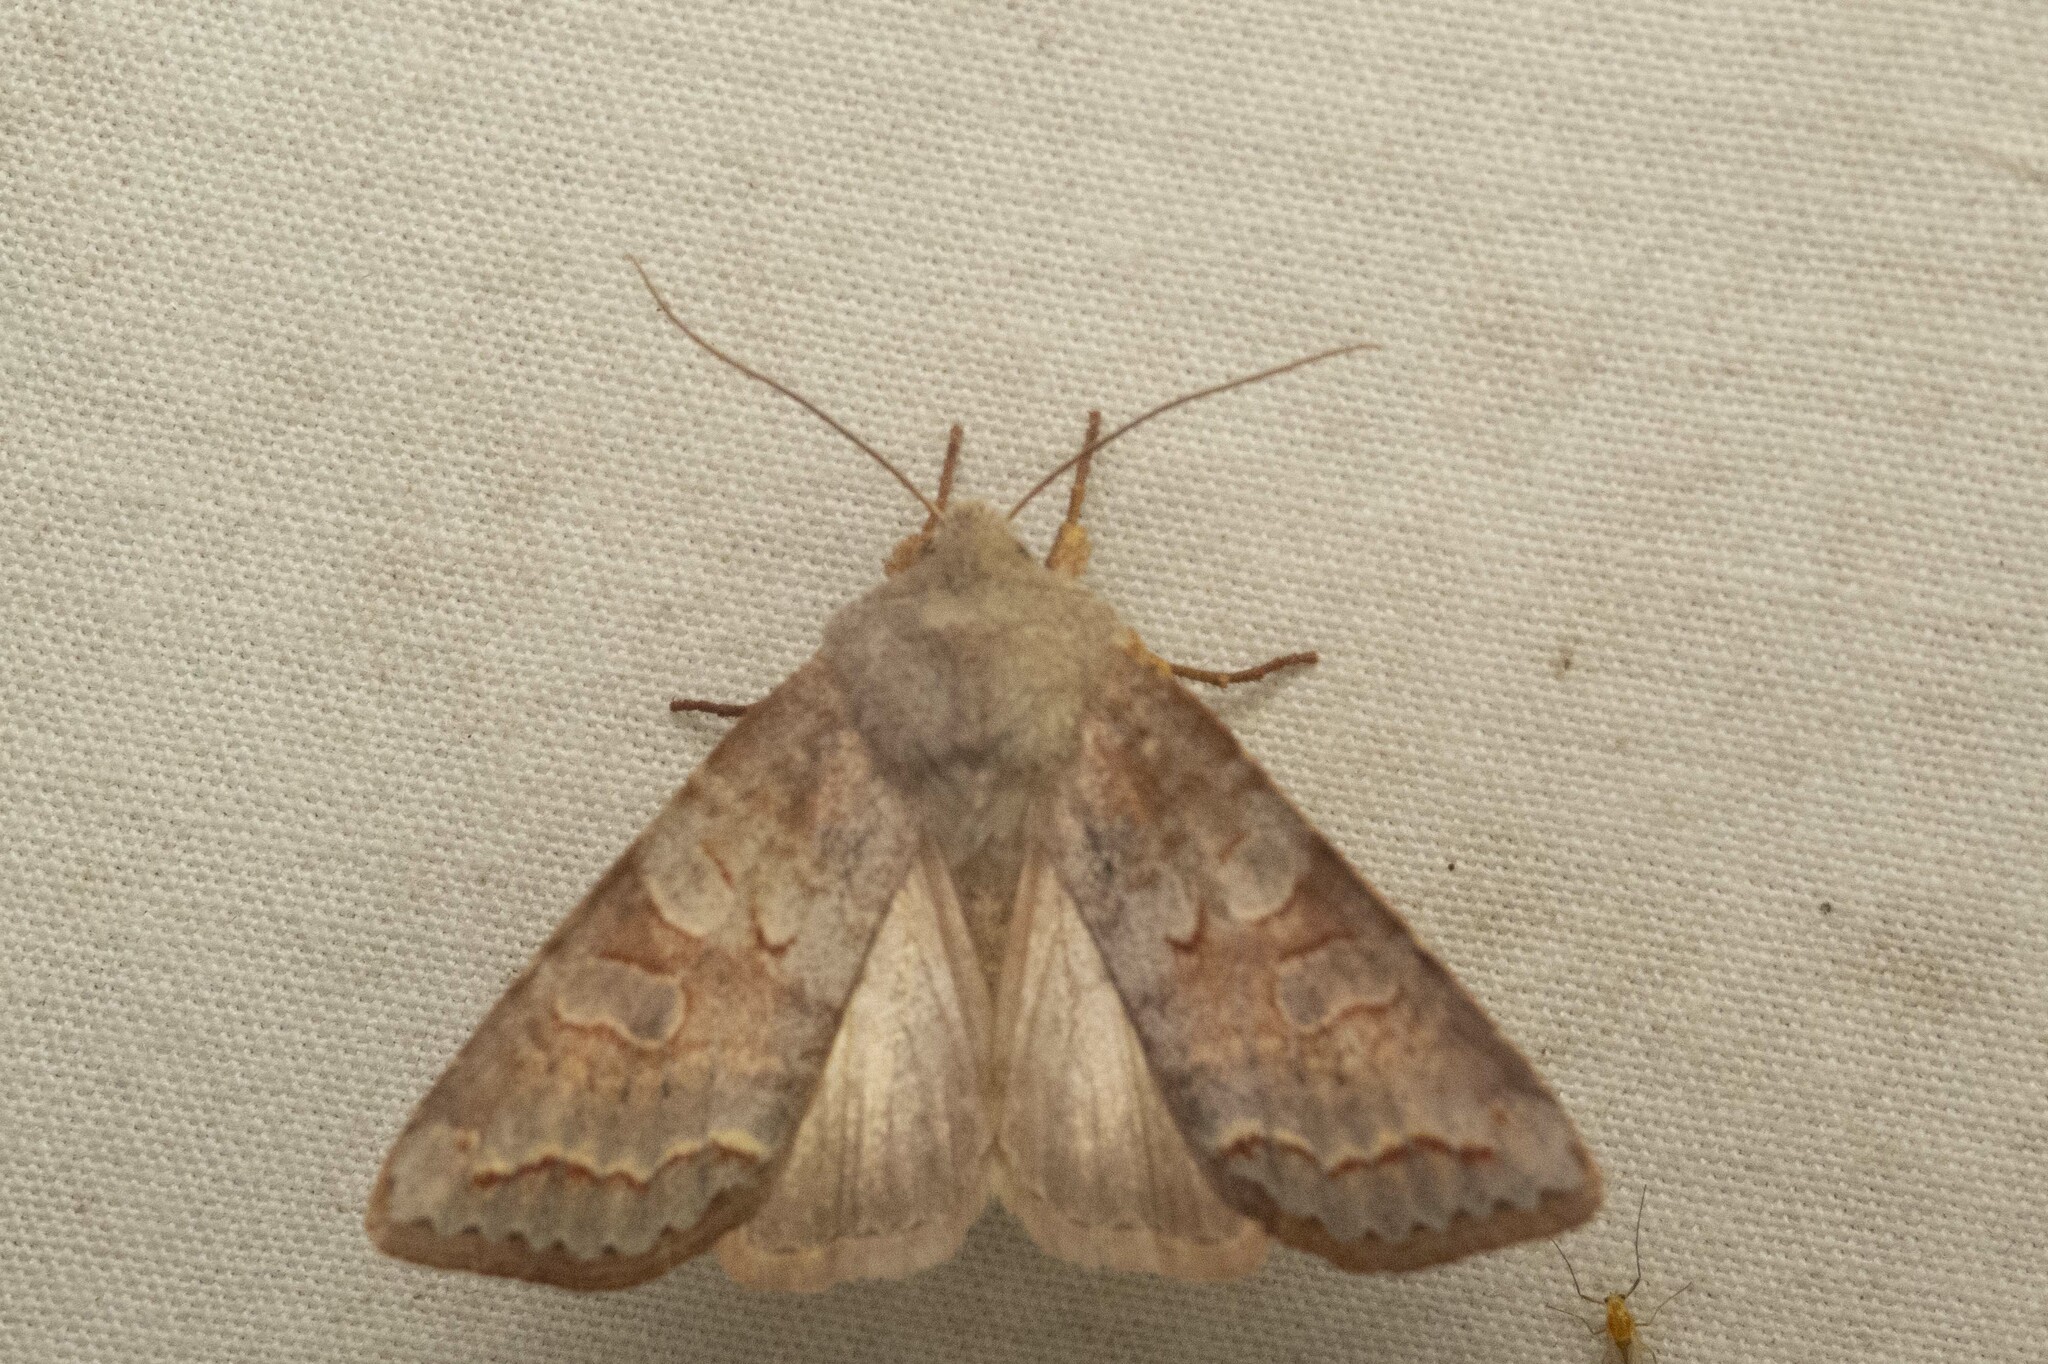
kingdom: Animalia
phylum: Arthropoda
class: Insecta
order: Lepidoptera
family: Noctuidae
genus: Orthosia
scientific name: Orthosia revicta
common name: Rusty whitesided caterpillar
